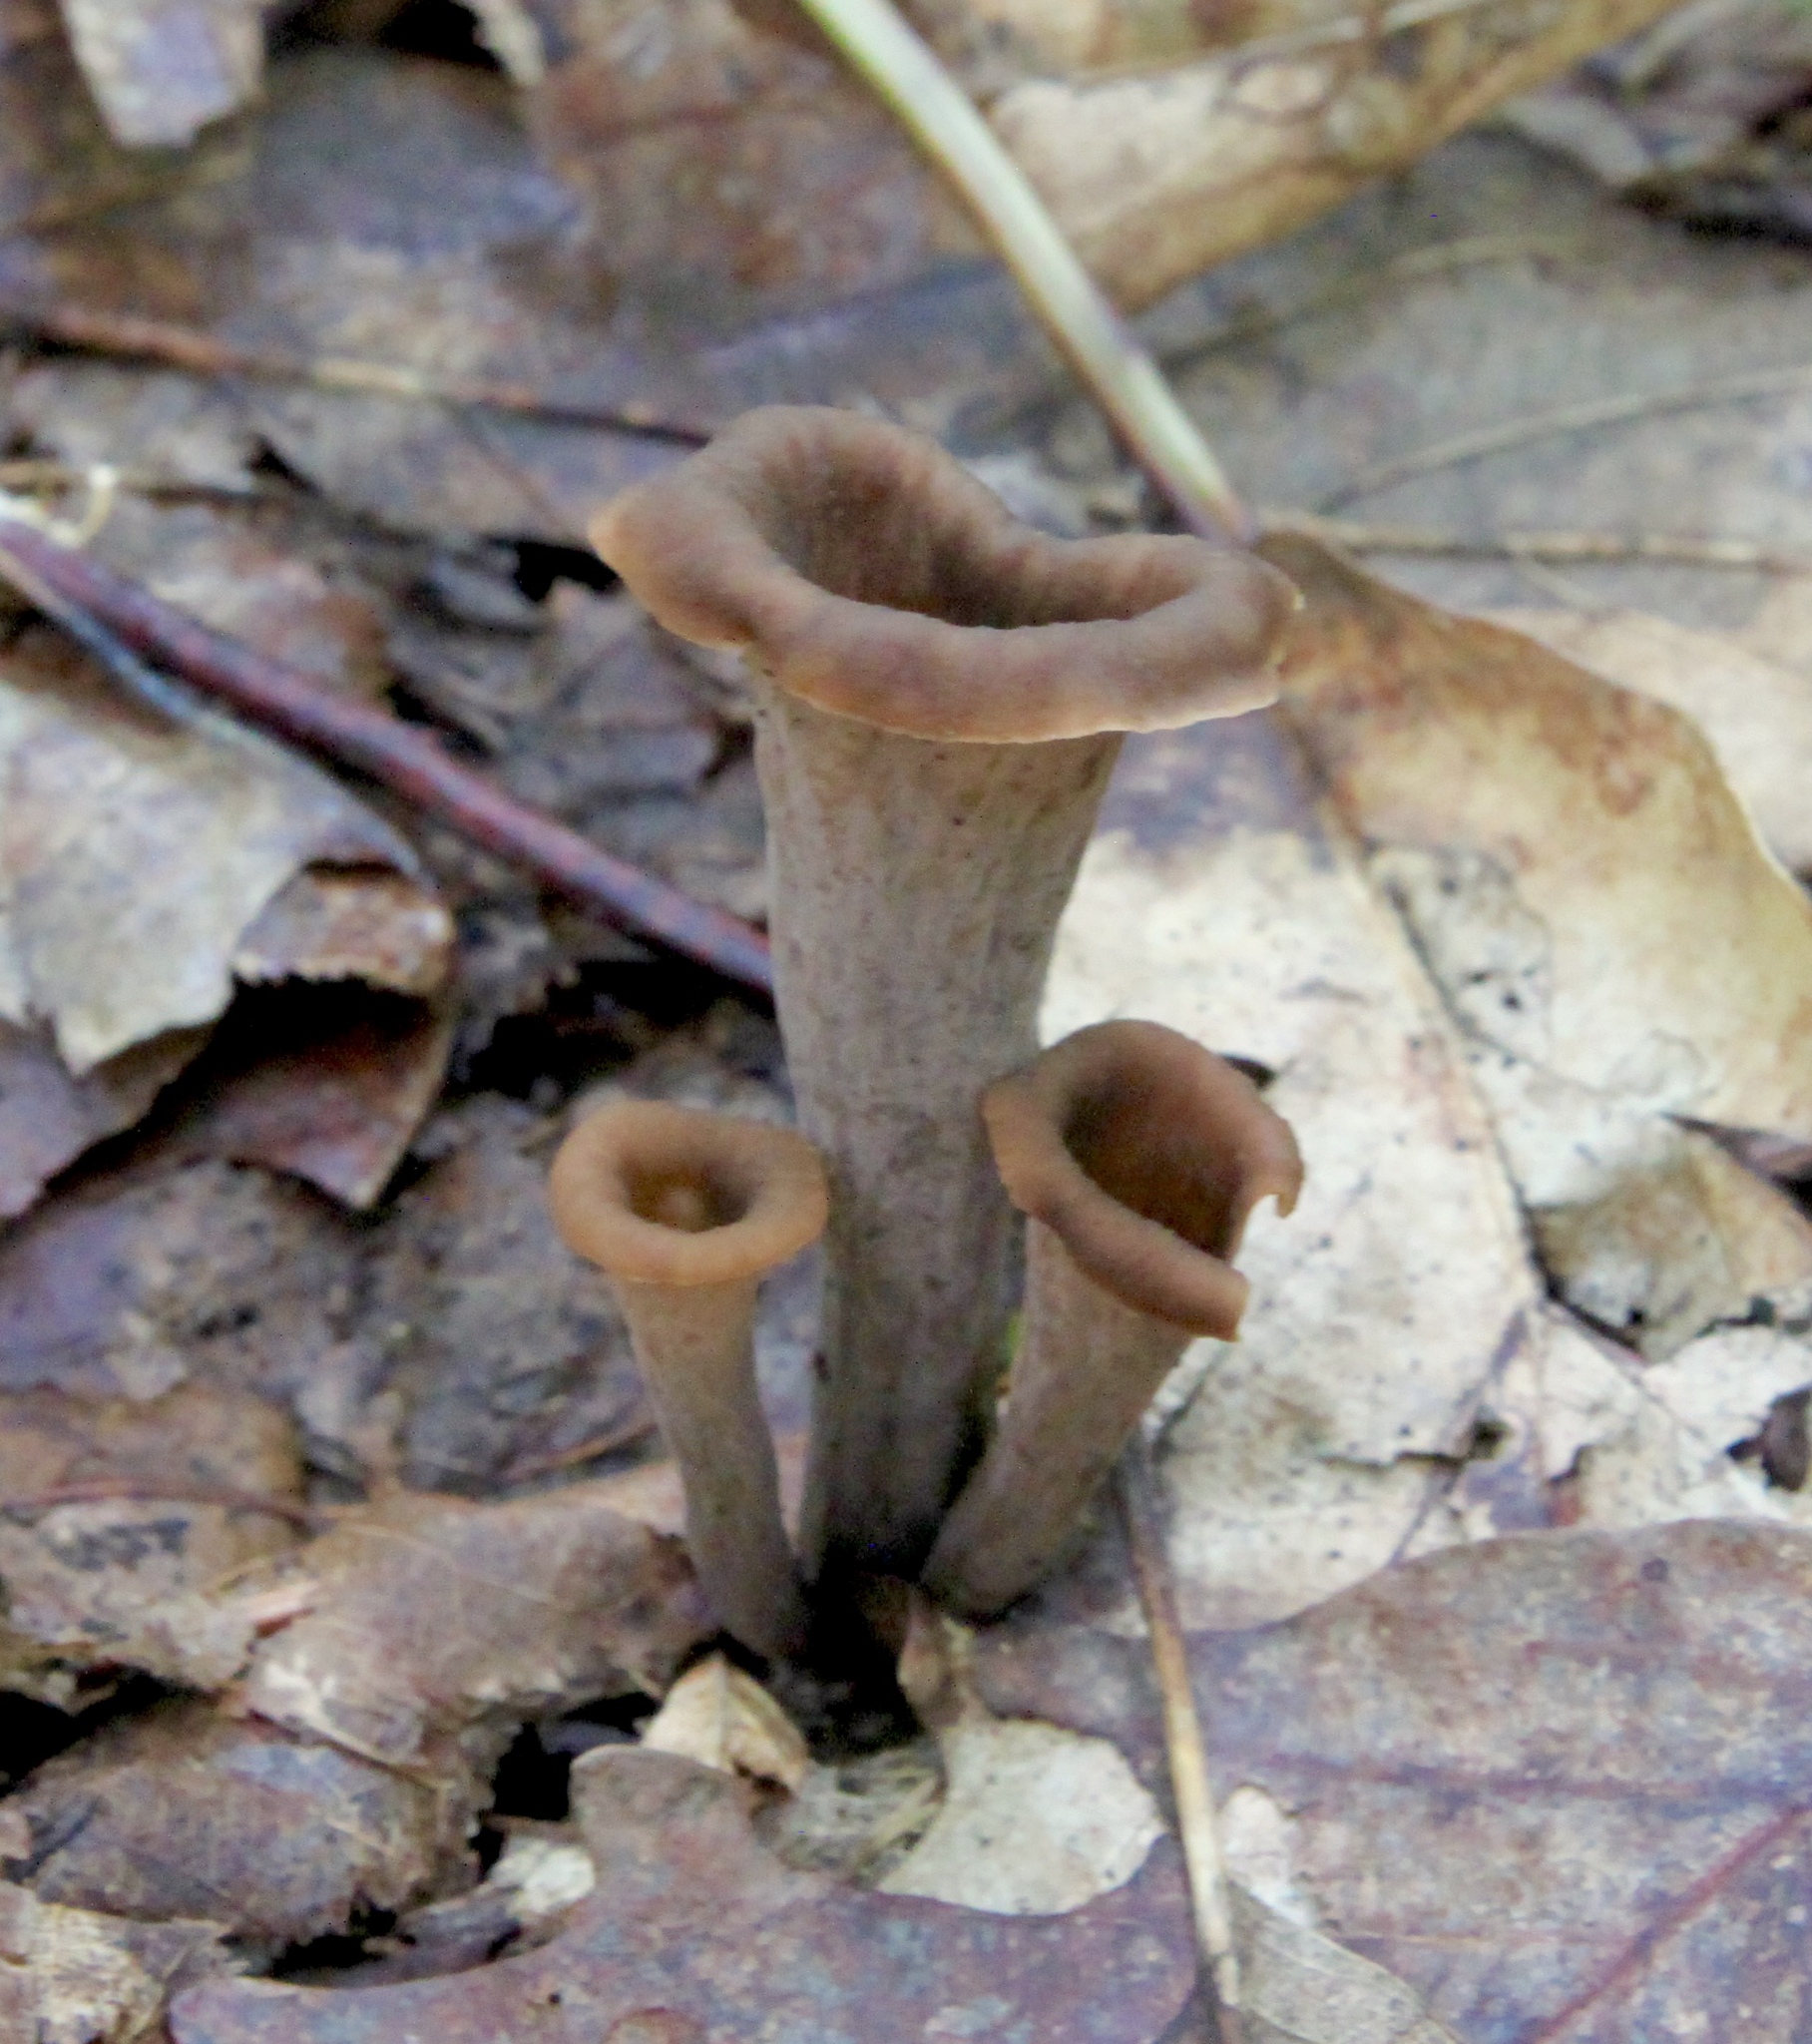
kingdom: Fungi
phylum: Basidiomycota
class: Agaricomycetes
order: Cantharellales
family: Hydnaceae
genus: Craterellus
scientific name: Craterellus cornucopioides
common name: Horn of plenty
